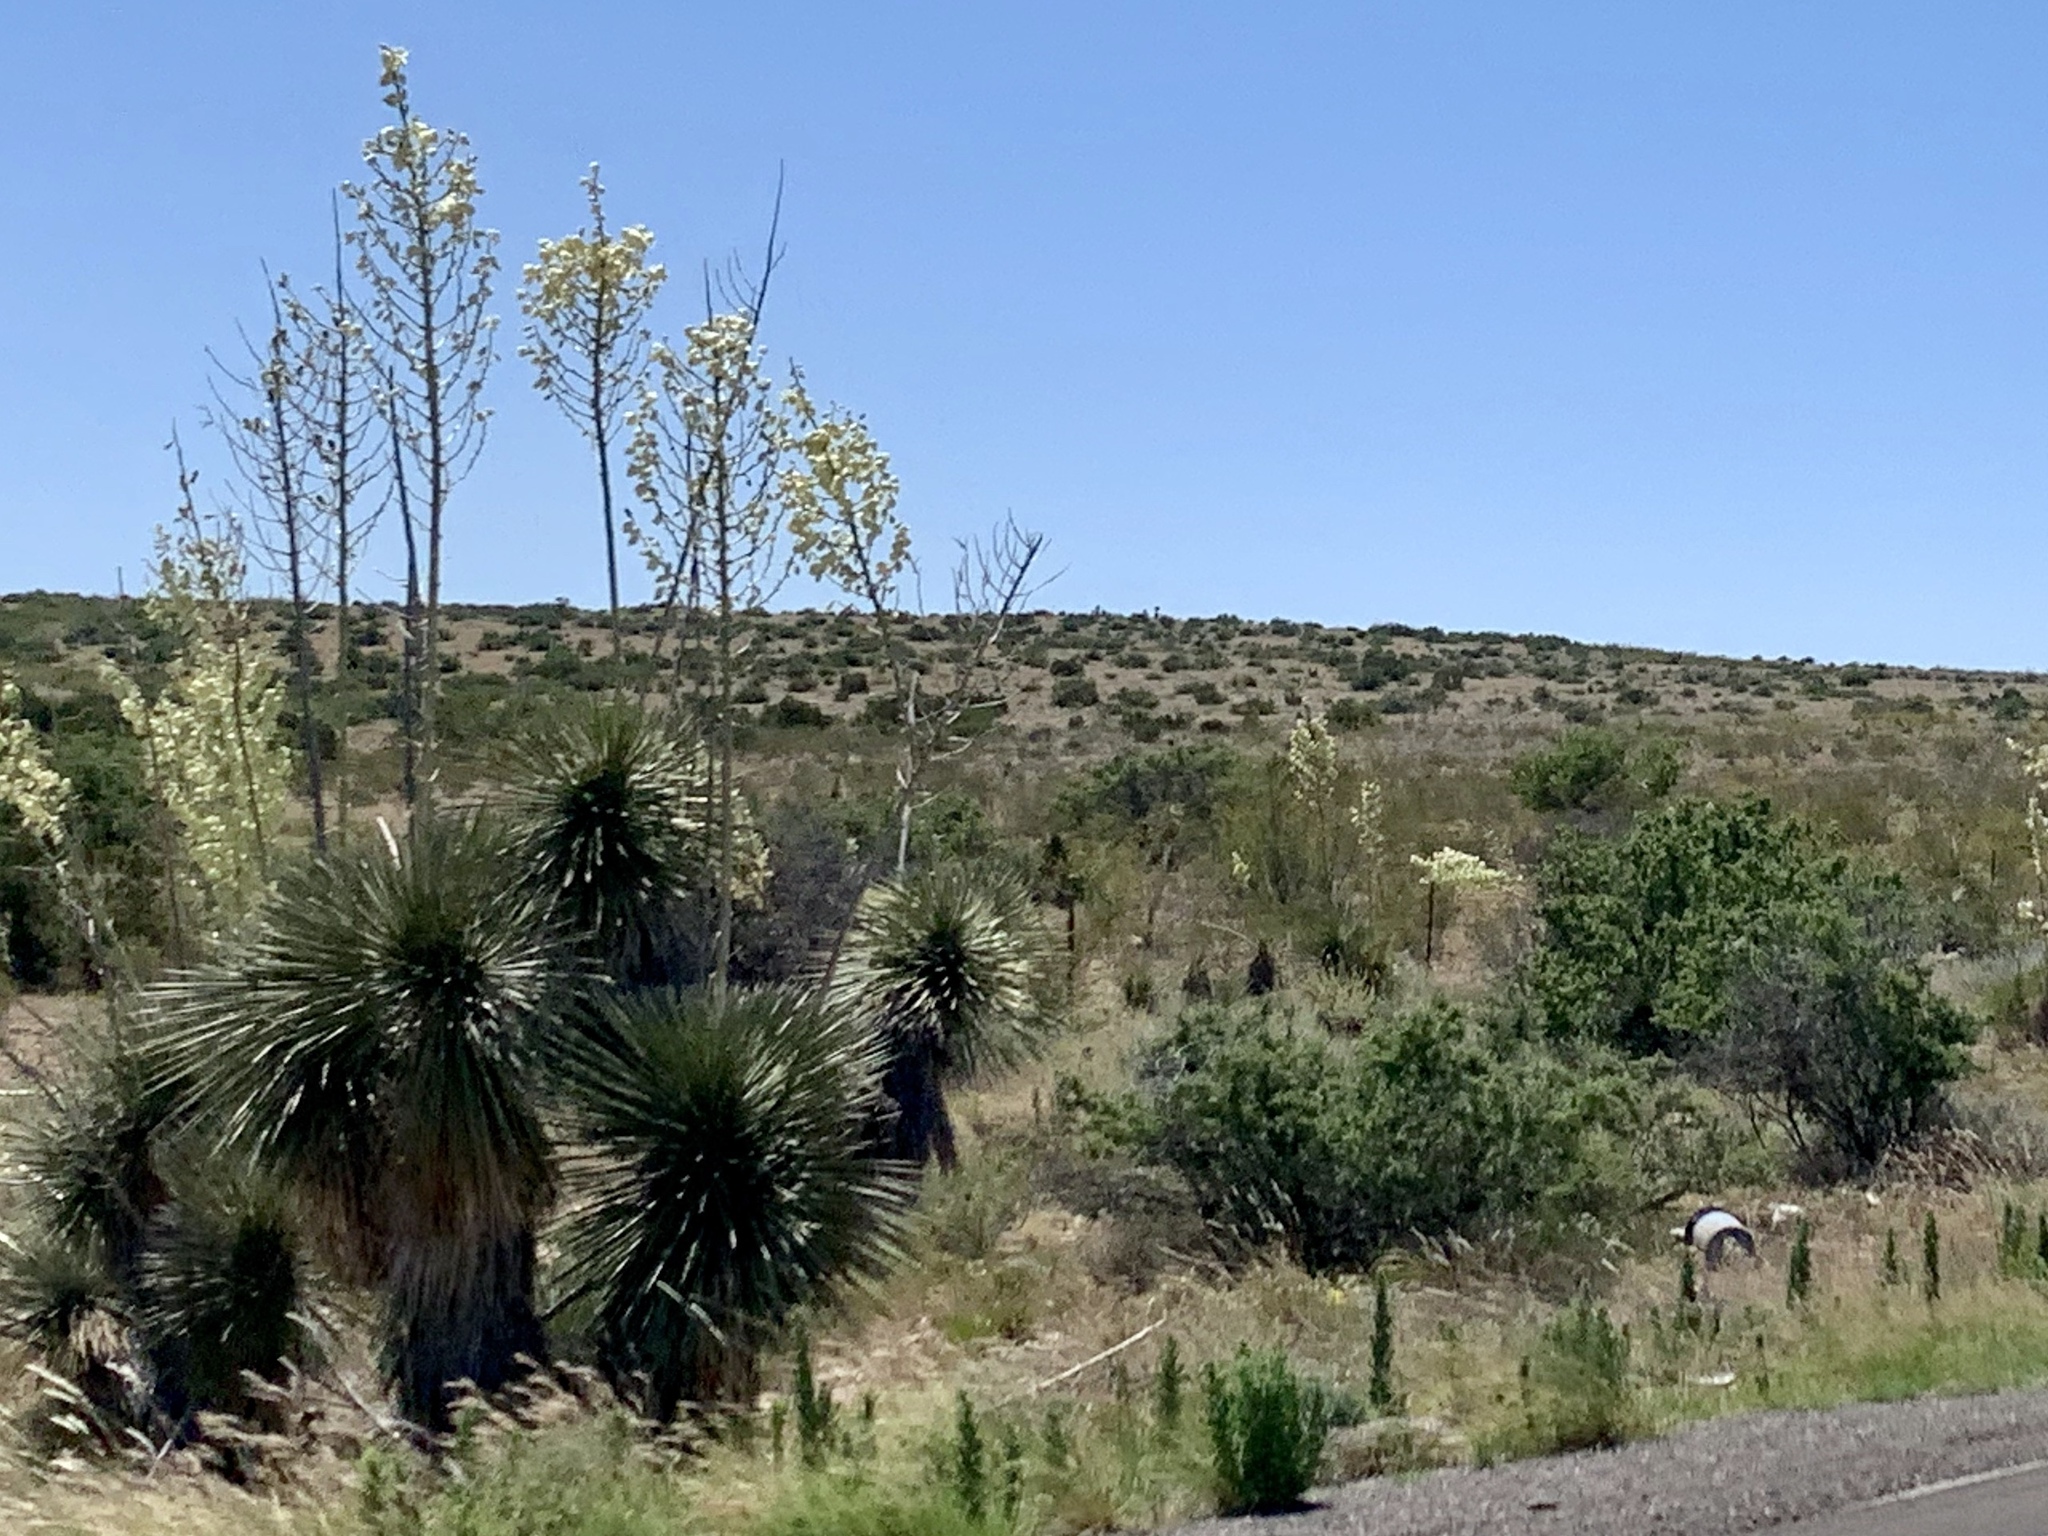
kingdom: Plantae
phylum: Tracheophyta
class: Liliopsida
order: Asparagales
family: Asparagaceae
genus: Yucca
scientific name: Yucca elata
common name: Palmella
